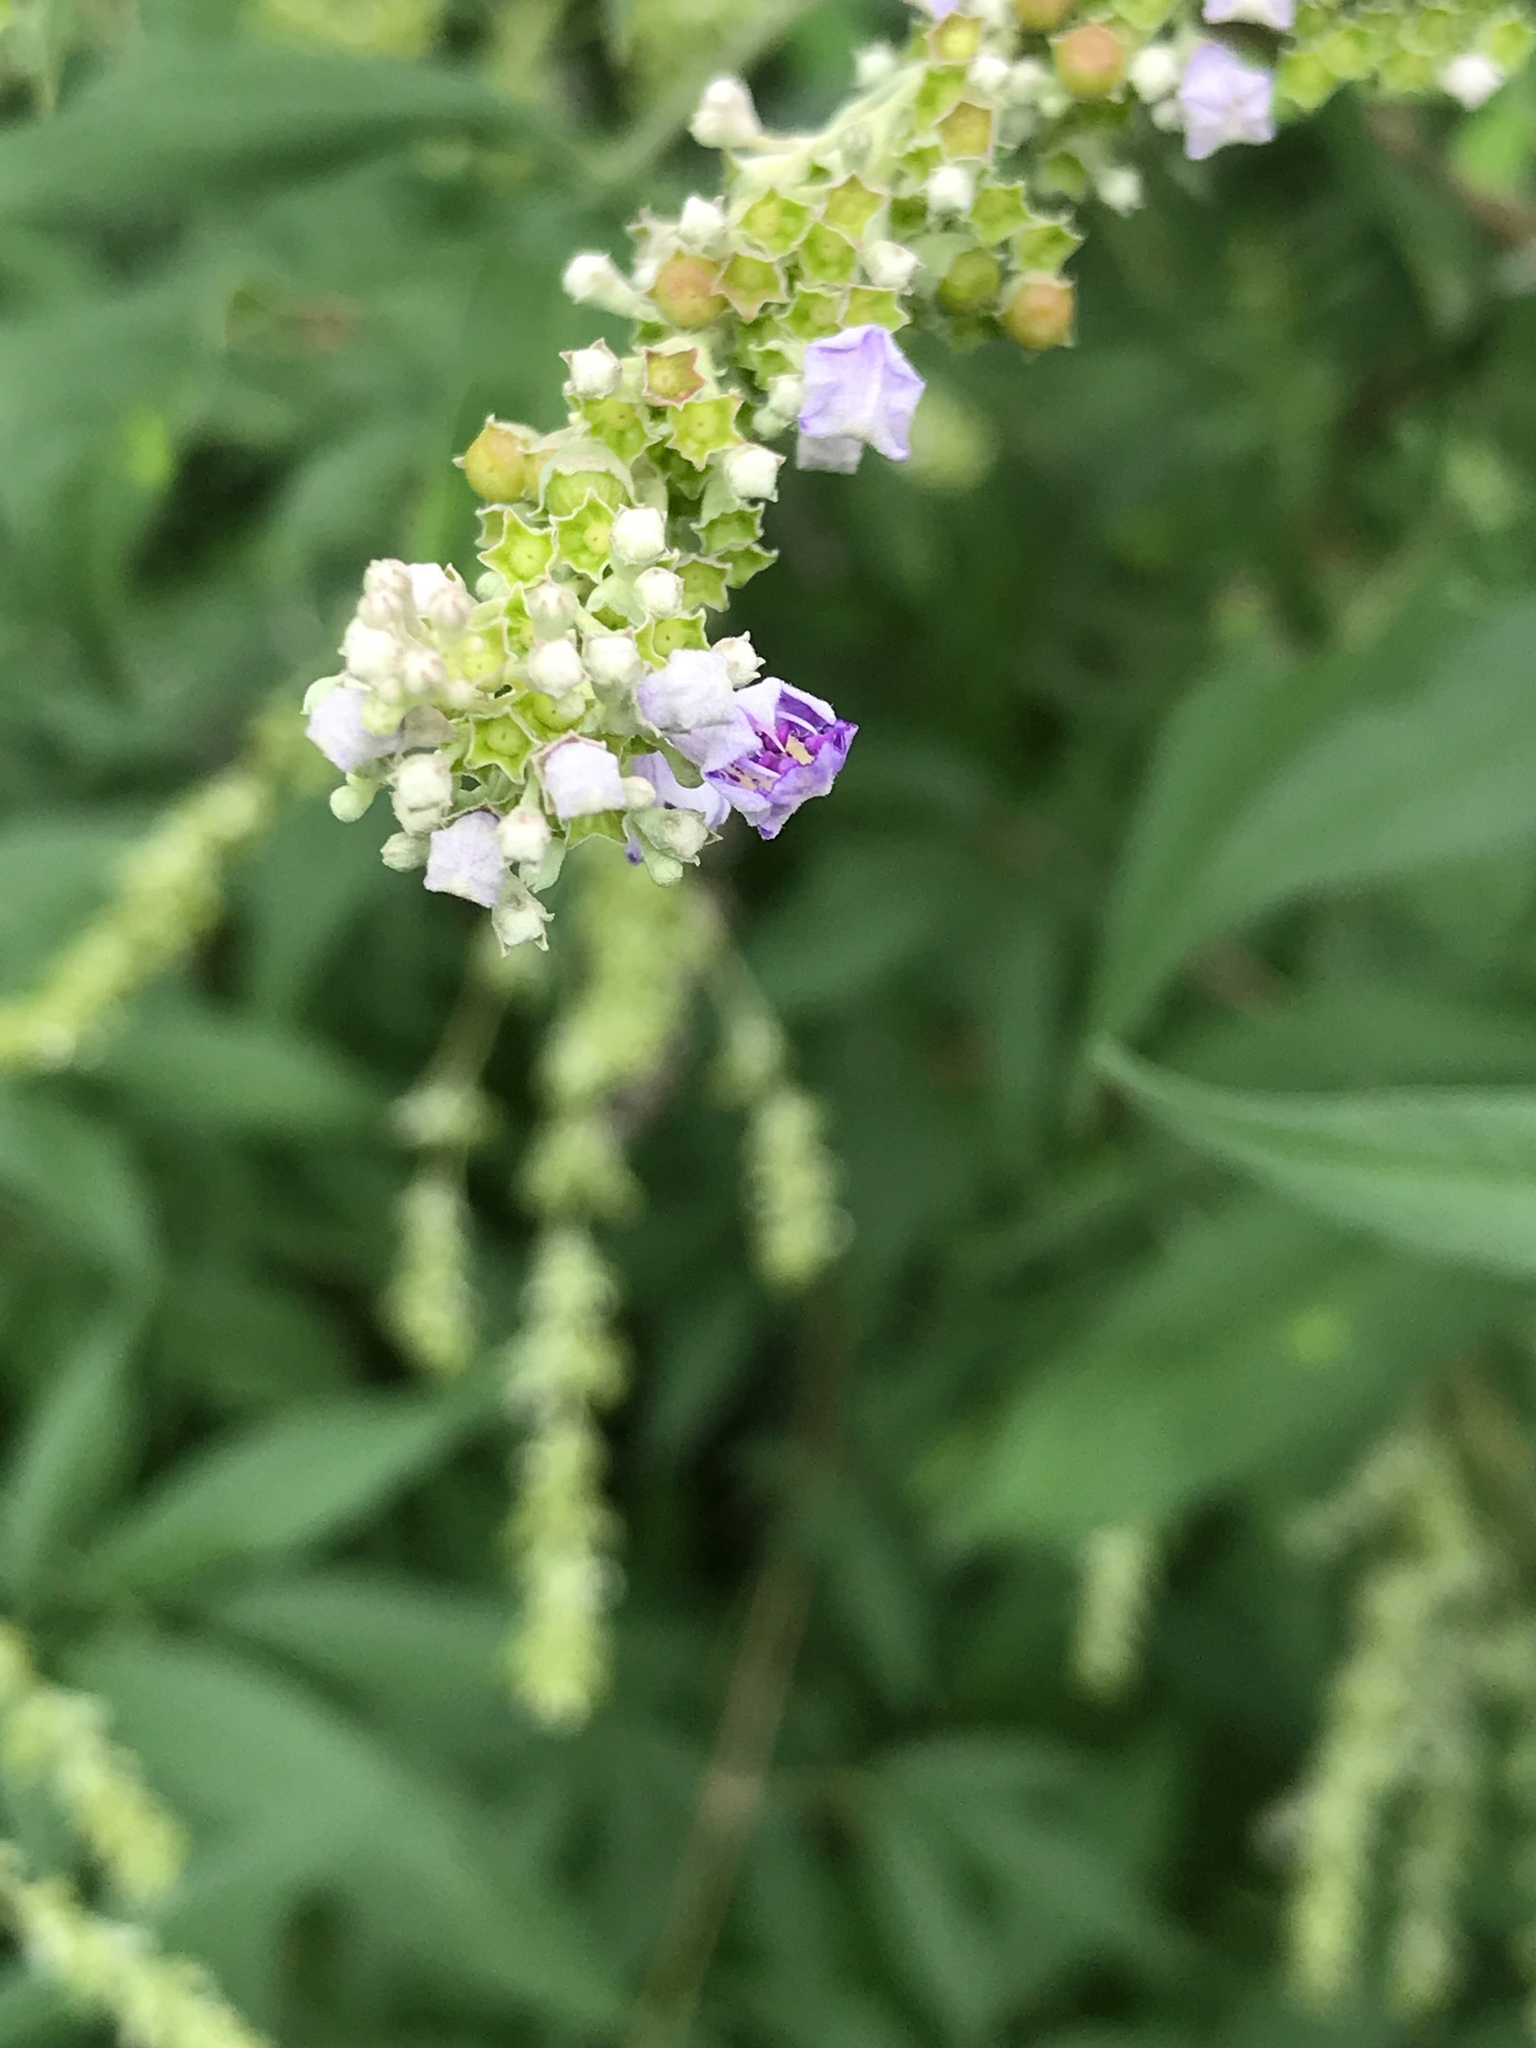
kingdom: Plantae
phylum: Tracheophyta
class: Magnoliopsida
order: Lamiales
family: Lamiaceae
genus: Vitex
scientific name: Vitex negundo
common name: Chinese chastetree
